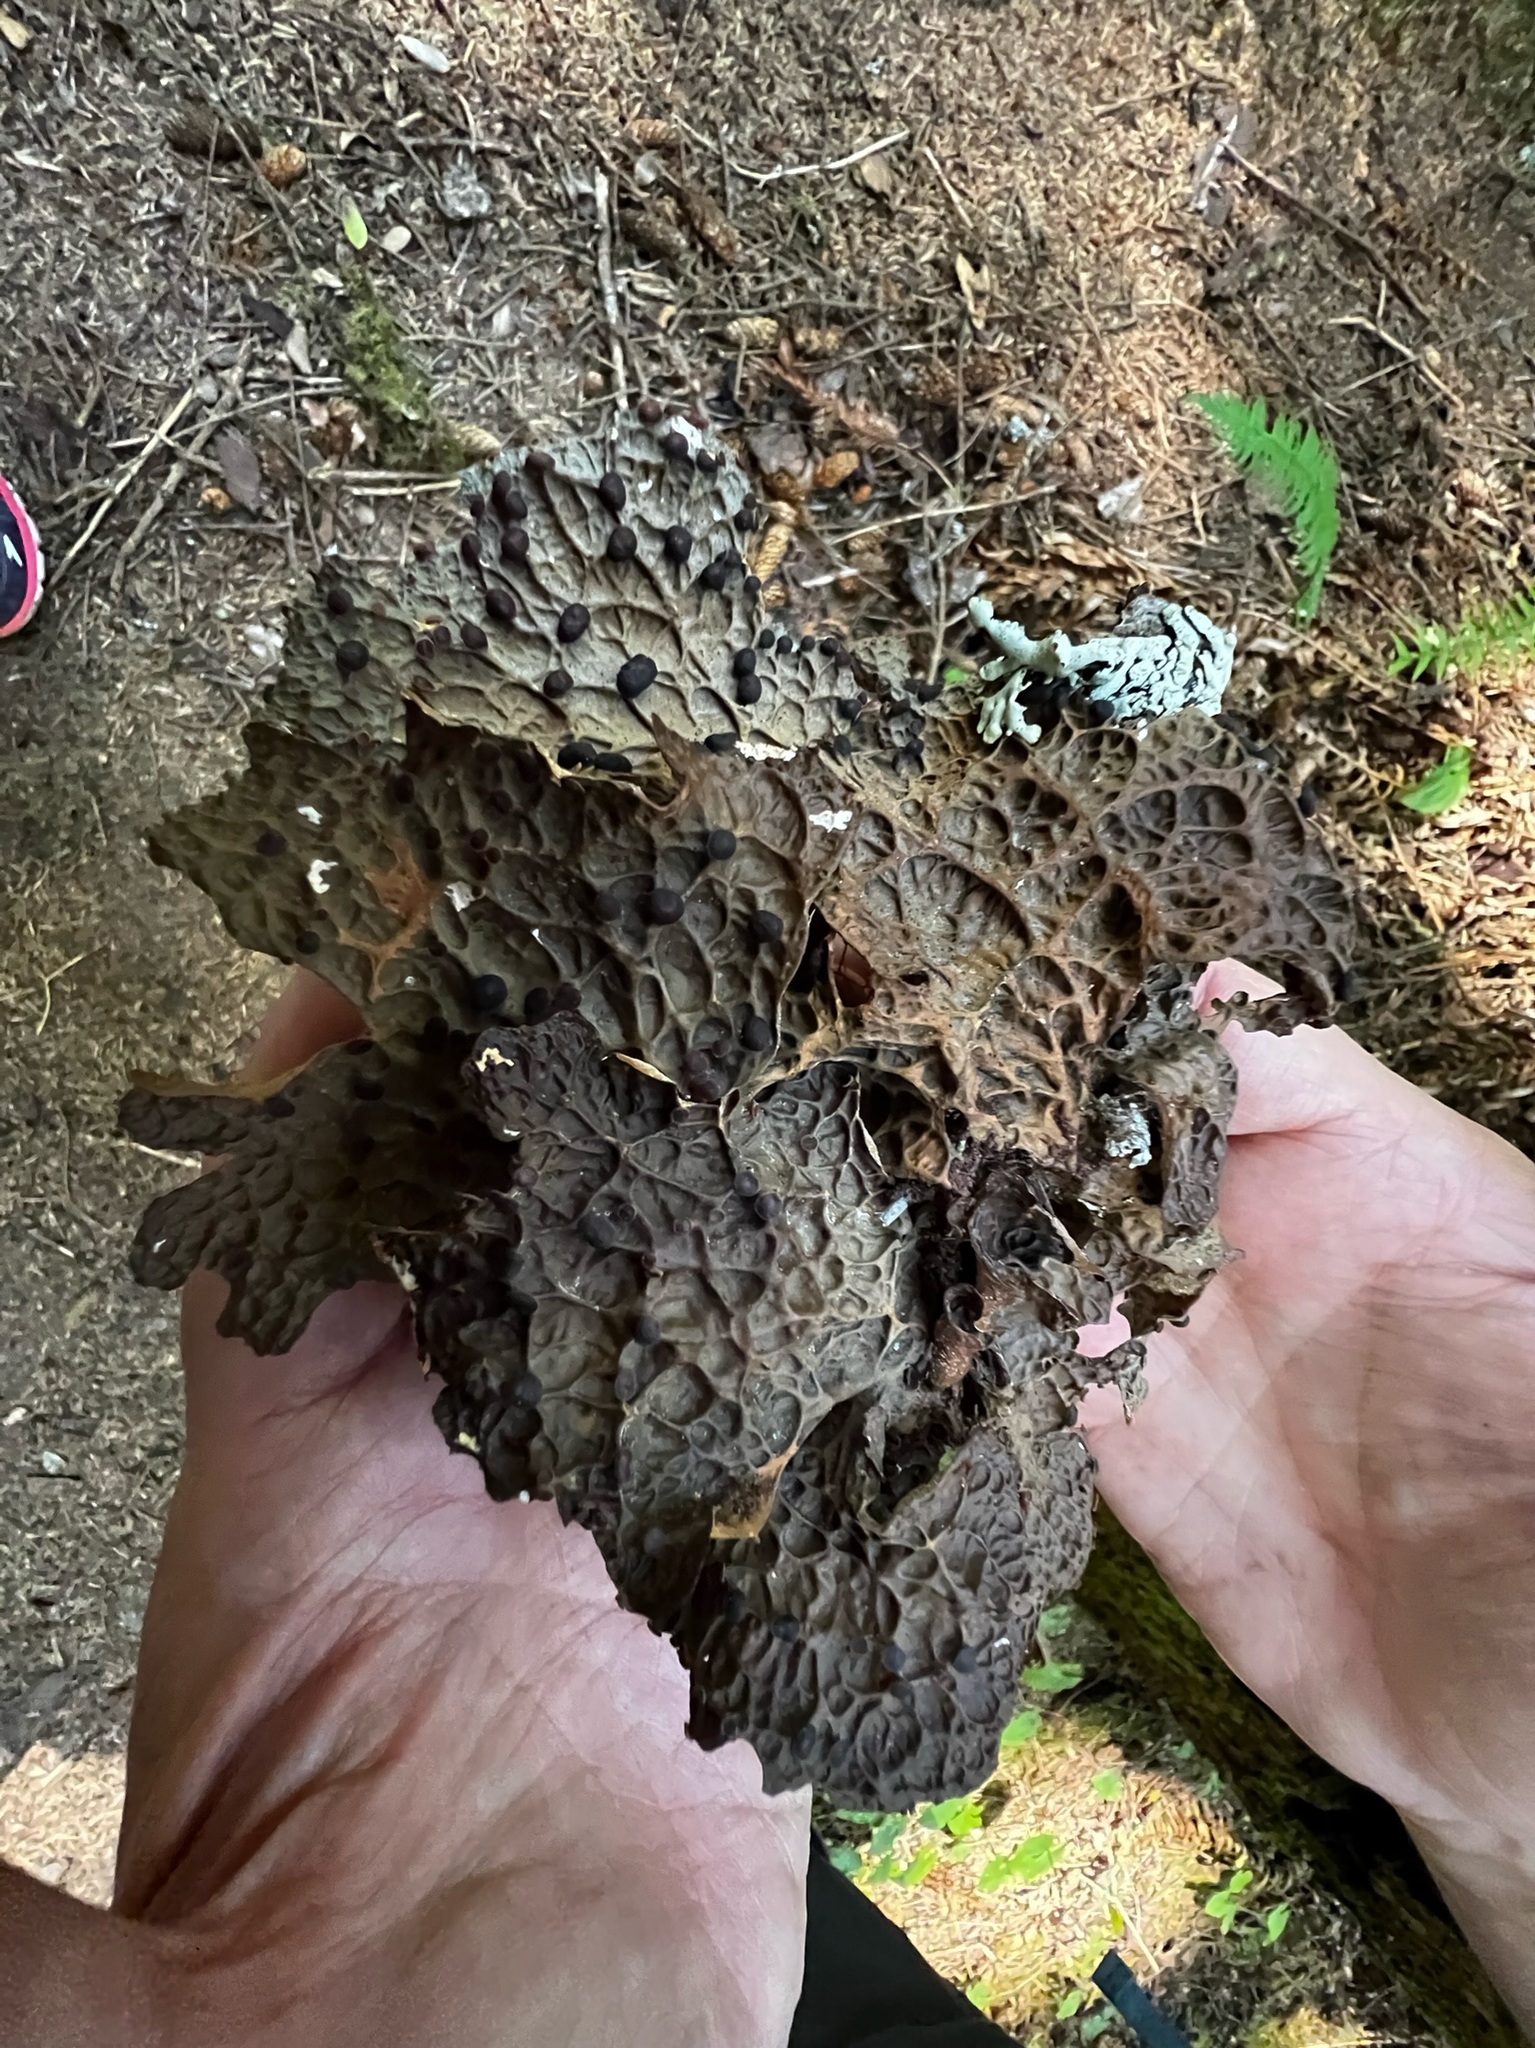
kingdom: Fungi
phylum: Ascomycota
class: Lecanoromycetes
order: Peltigerales
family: Lobariaceae
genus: Lobaria
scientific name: Lobaria anthraspis
